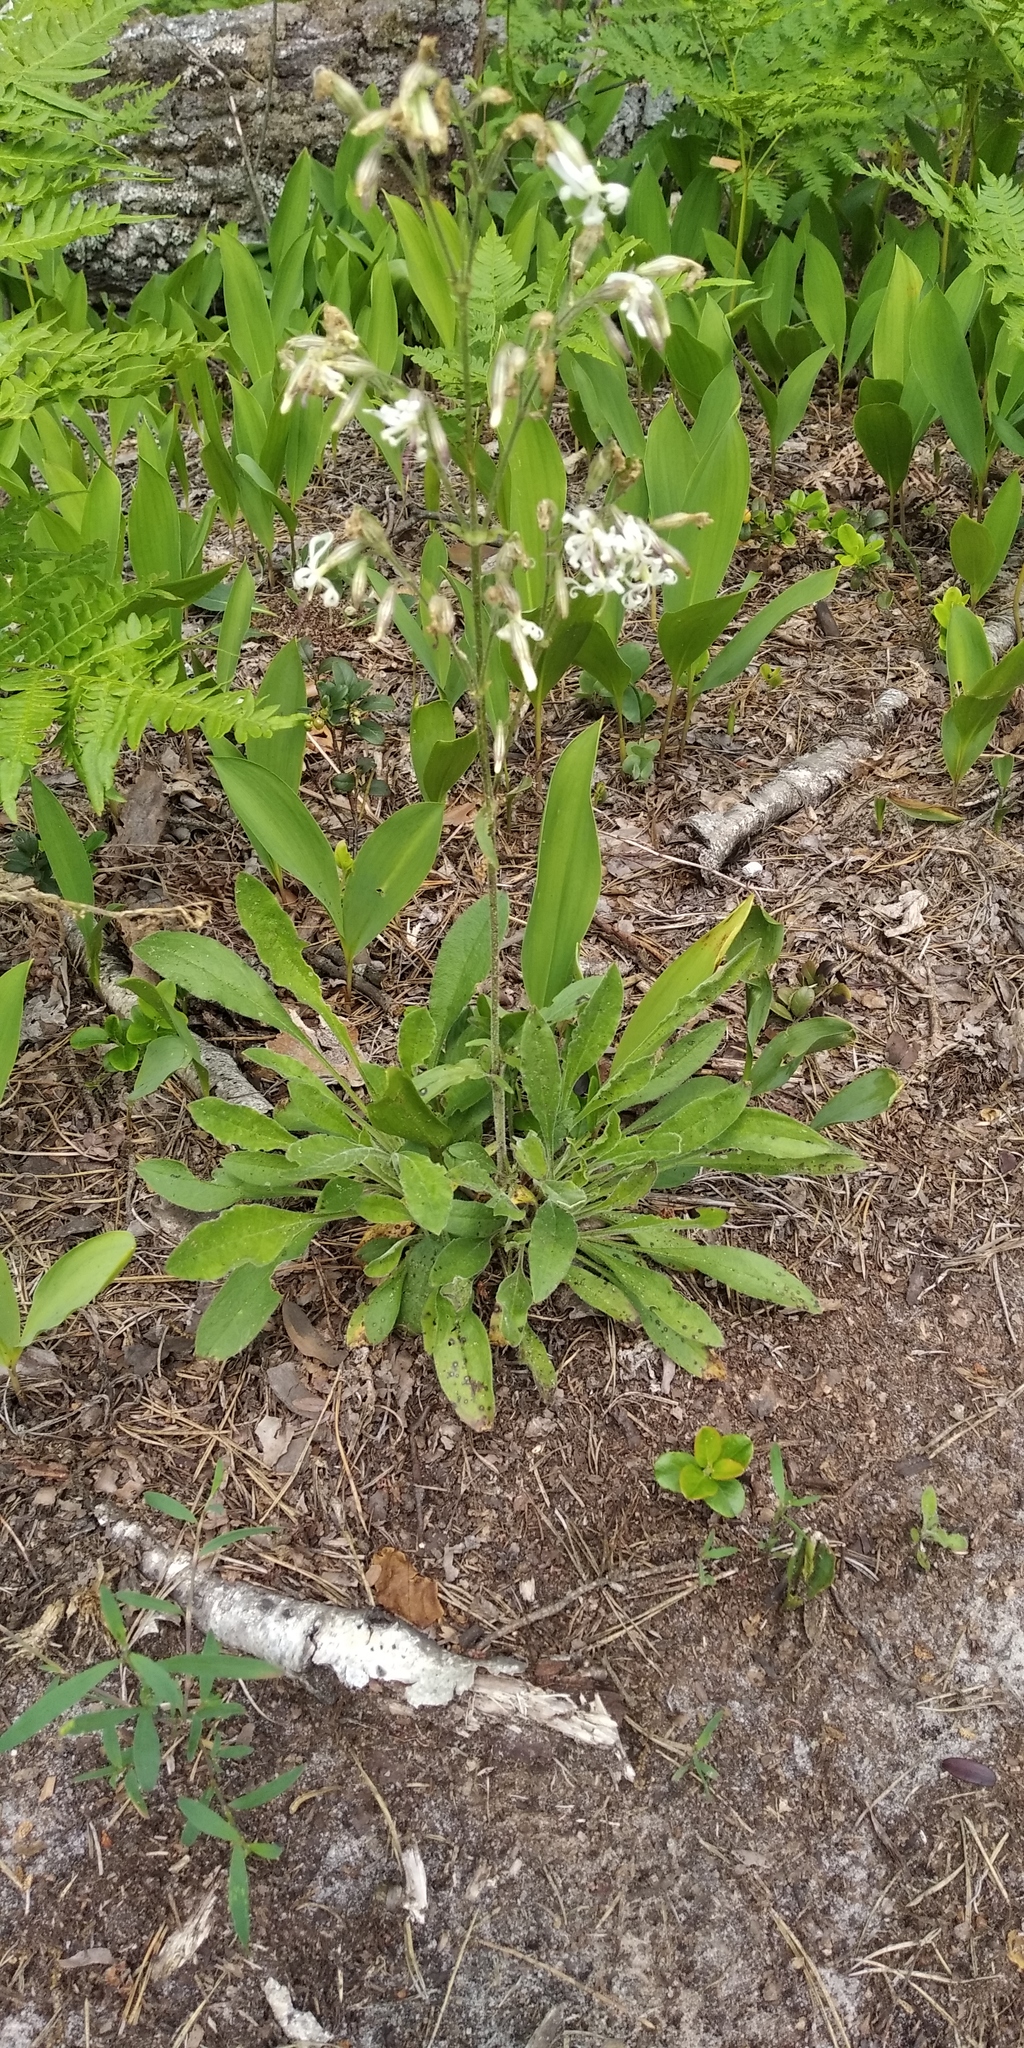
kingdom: Plantae
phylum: Tracheophyta
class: Magnoliopsida
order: Caryophyllales
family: Caryophyllaceae
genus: Silene
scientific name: Silene nutans
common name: Nottingham catchfly
